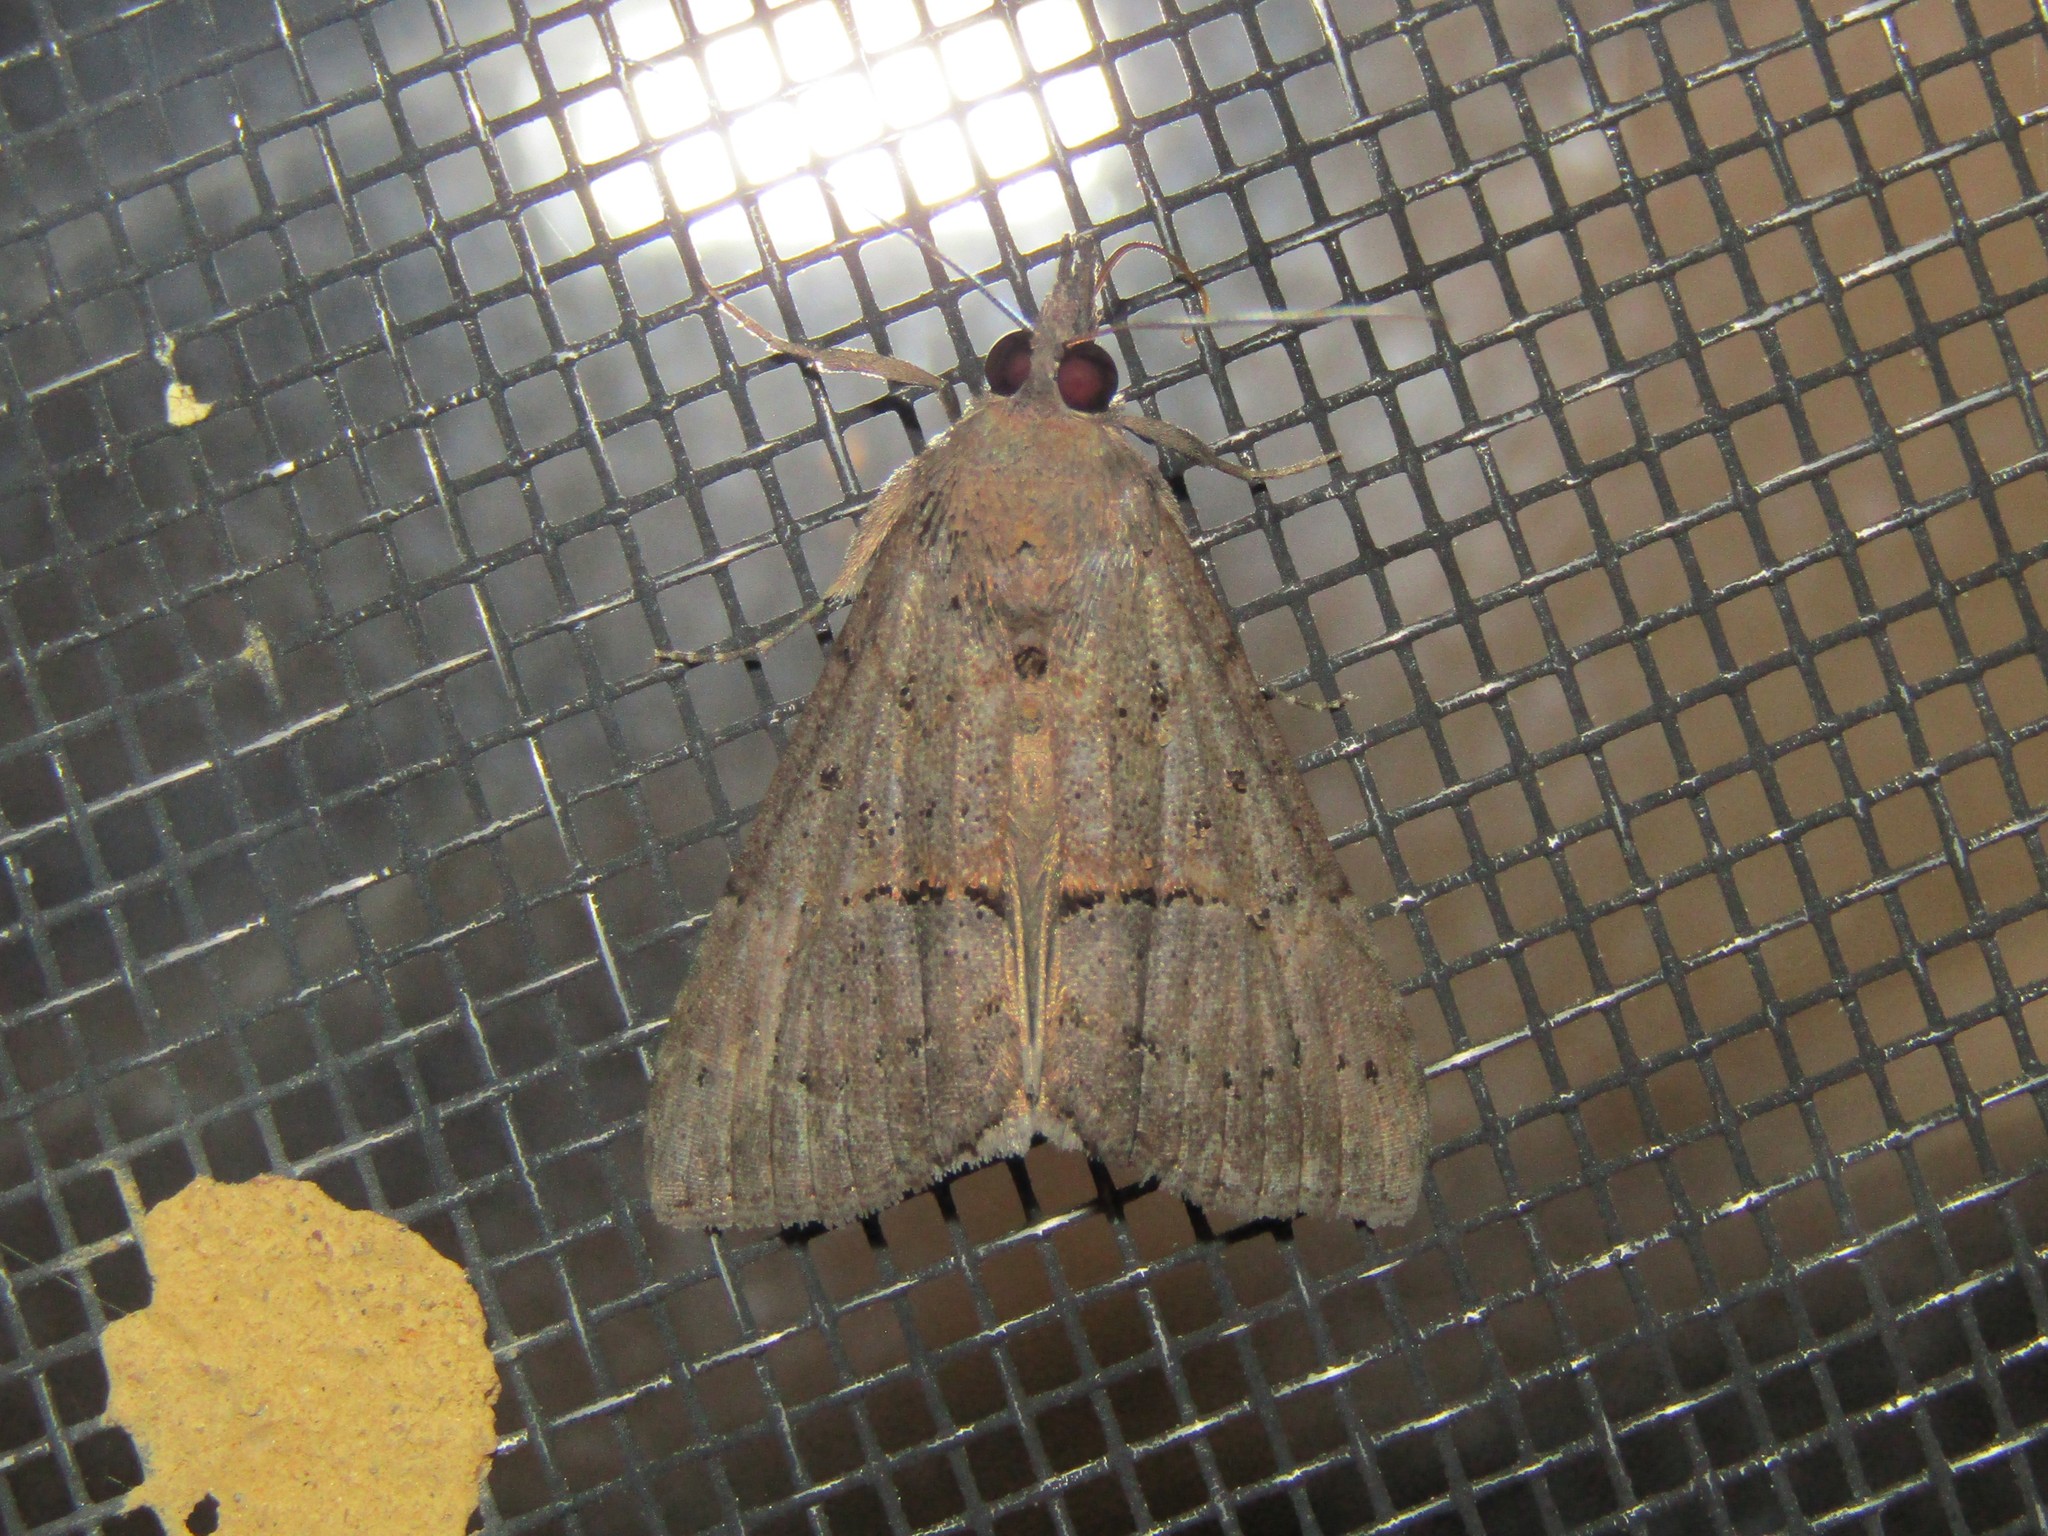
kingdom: Animalia
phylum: Arthropoda
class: Insecta
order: Lepidoptera
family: Erebidae
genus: Hypena
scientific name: Hypena scabra
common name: Green cloverworm
